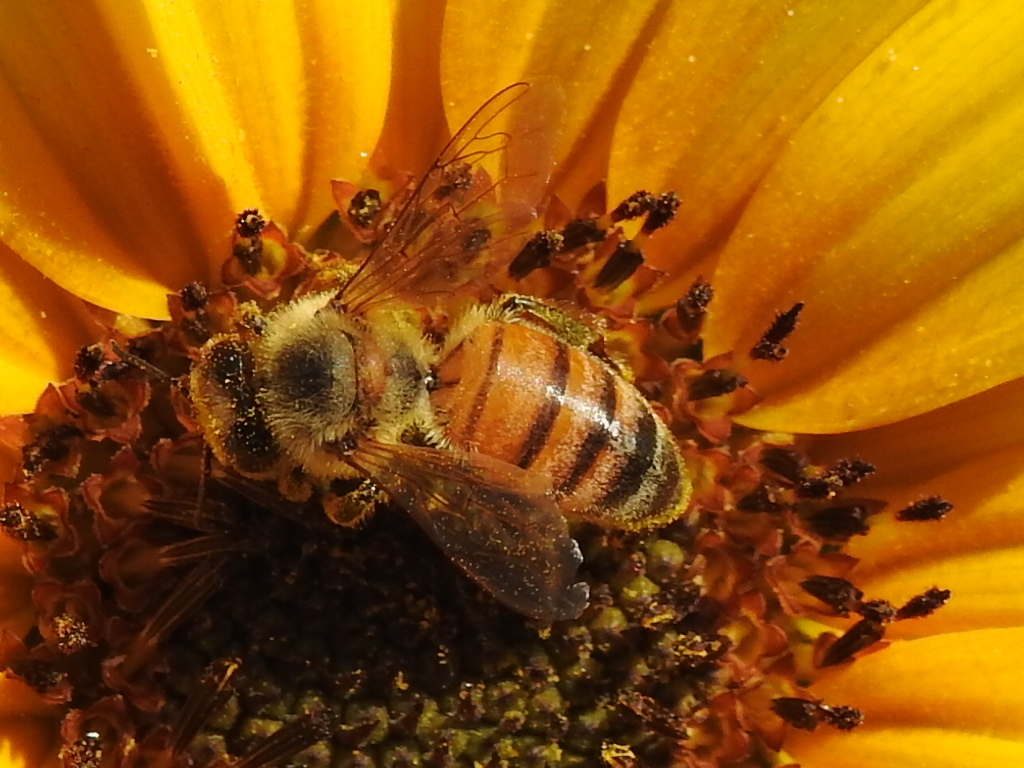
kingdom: Animalia
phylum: Arthropoda
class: Insecta
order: Hymenoptera
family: Apidae
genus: Apis
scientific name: Apis mellifera
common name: Honey bee
